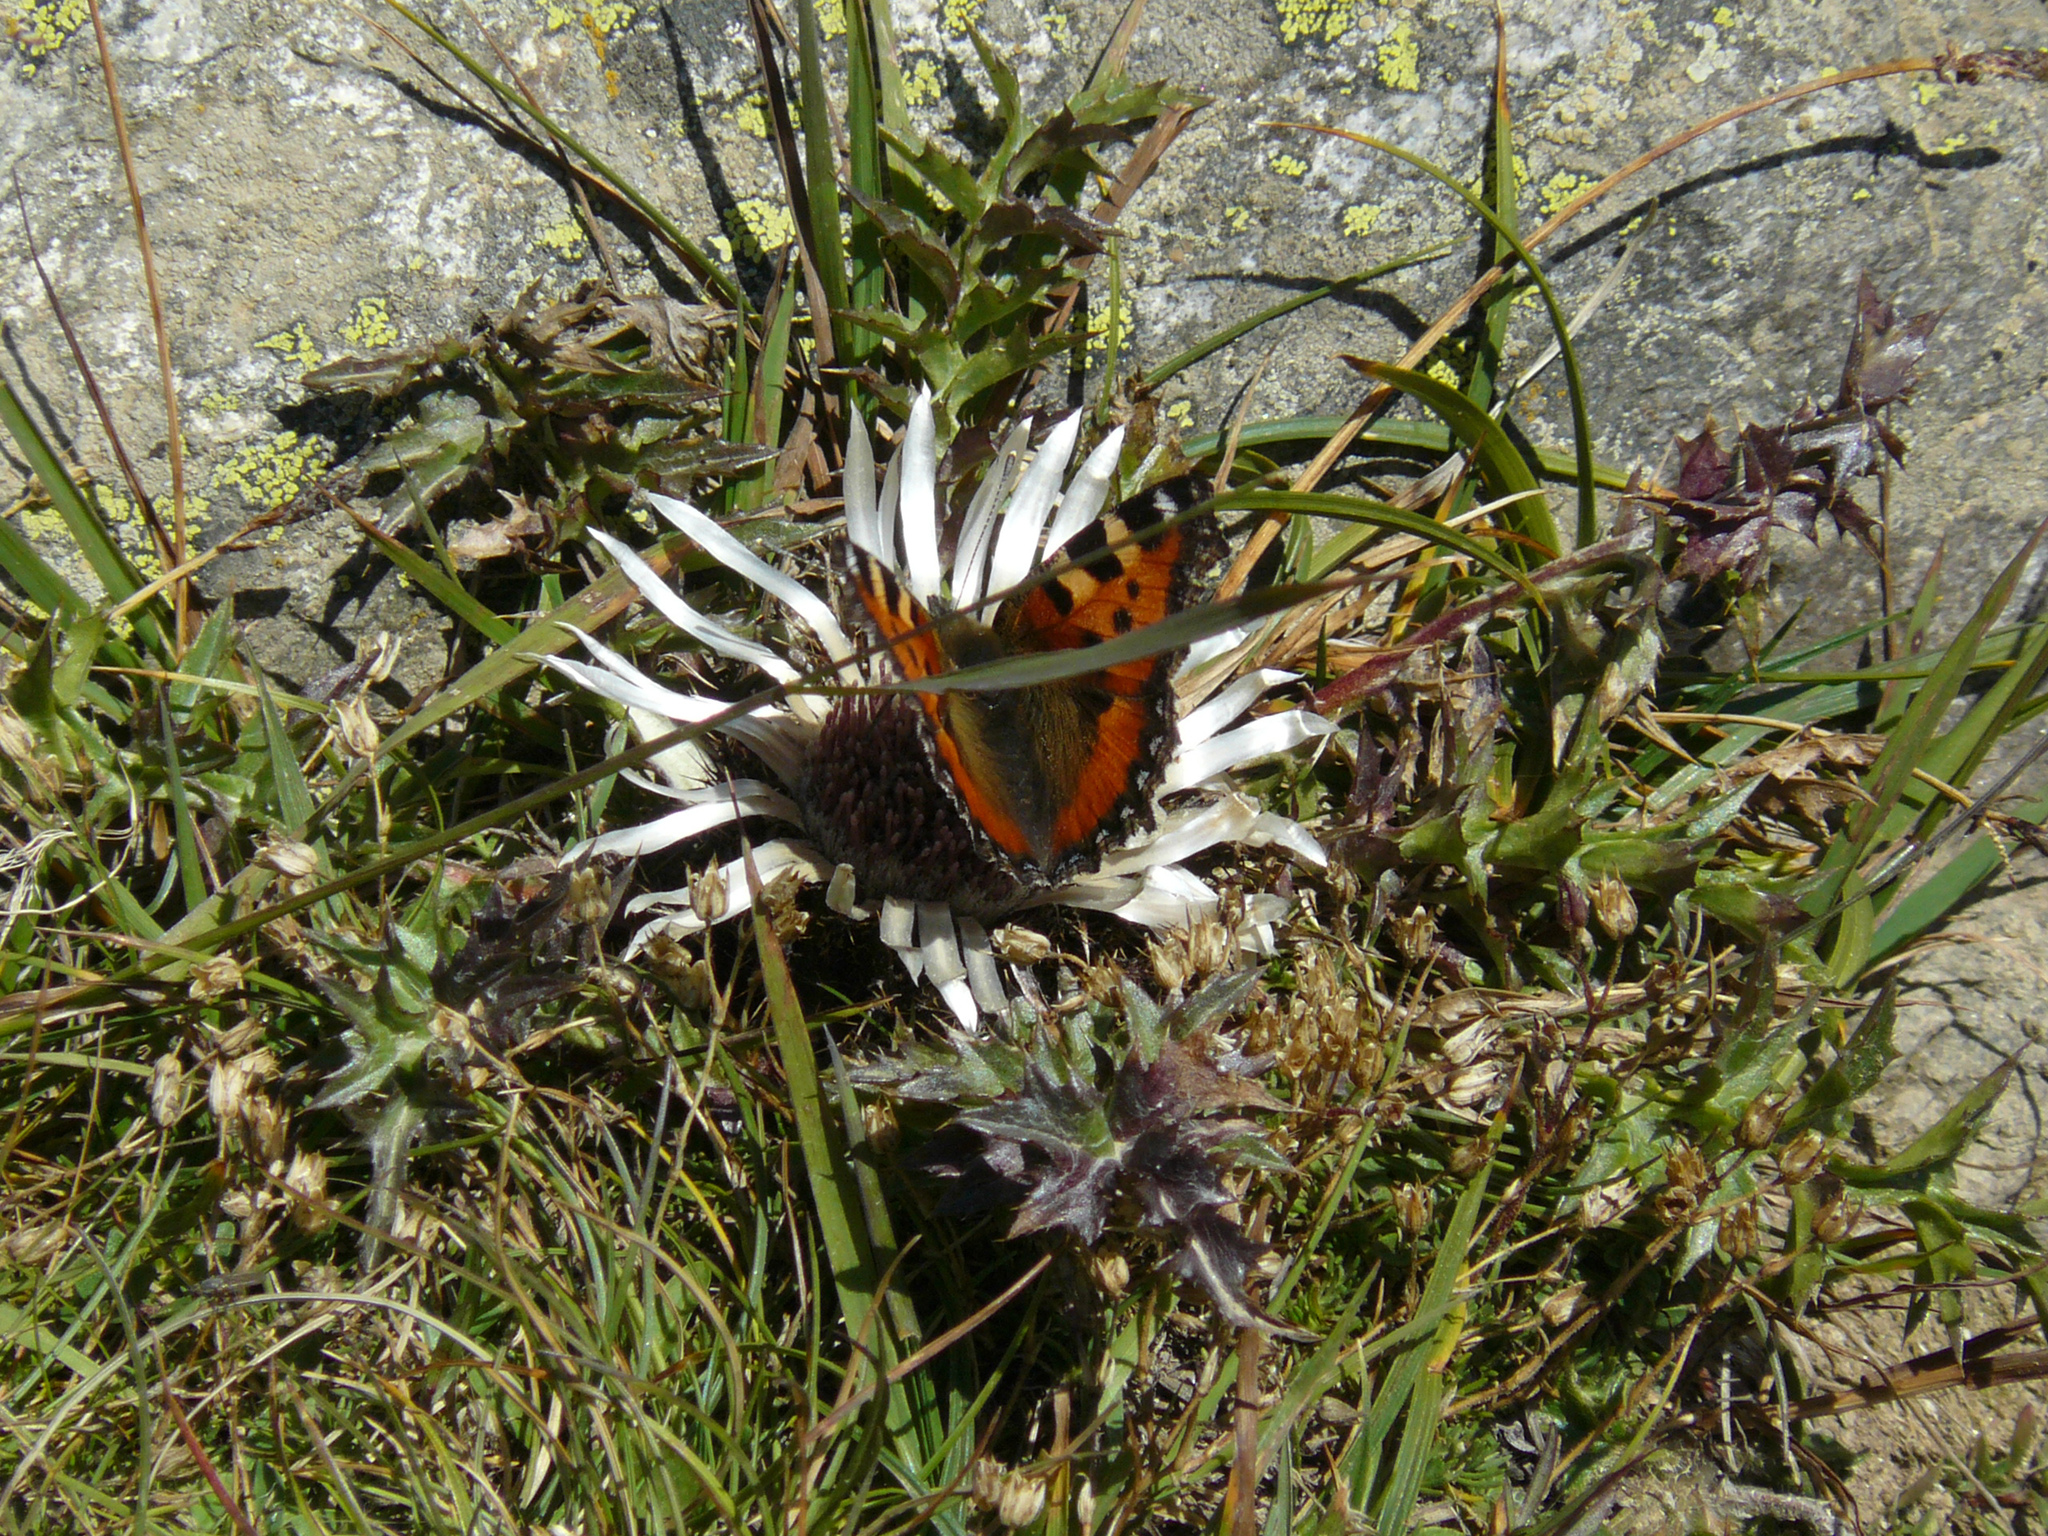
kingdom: Animalia
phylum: Arthropoda
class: Insecta
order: Lepidoptera
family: Nymphalidae
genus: Aglais
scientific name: Aglais urticae
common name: Small tortoiseshell
